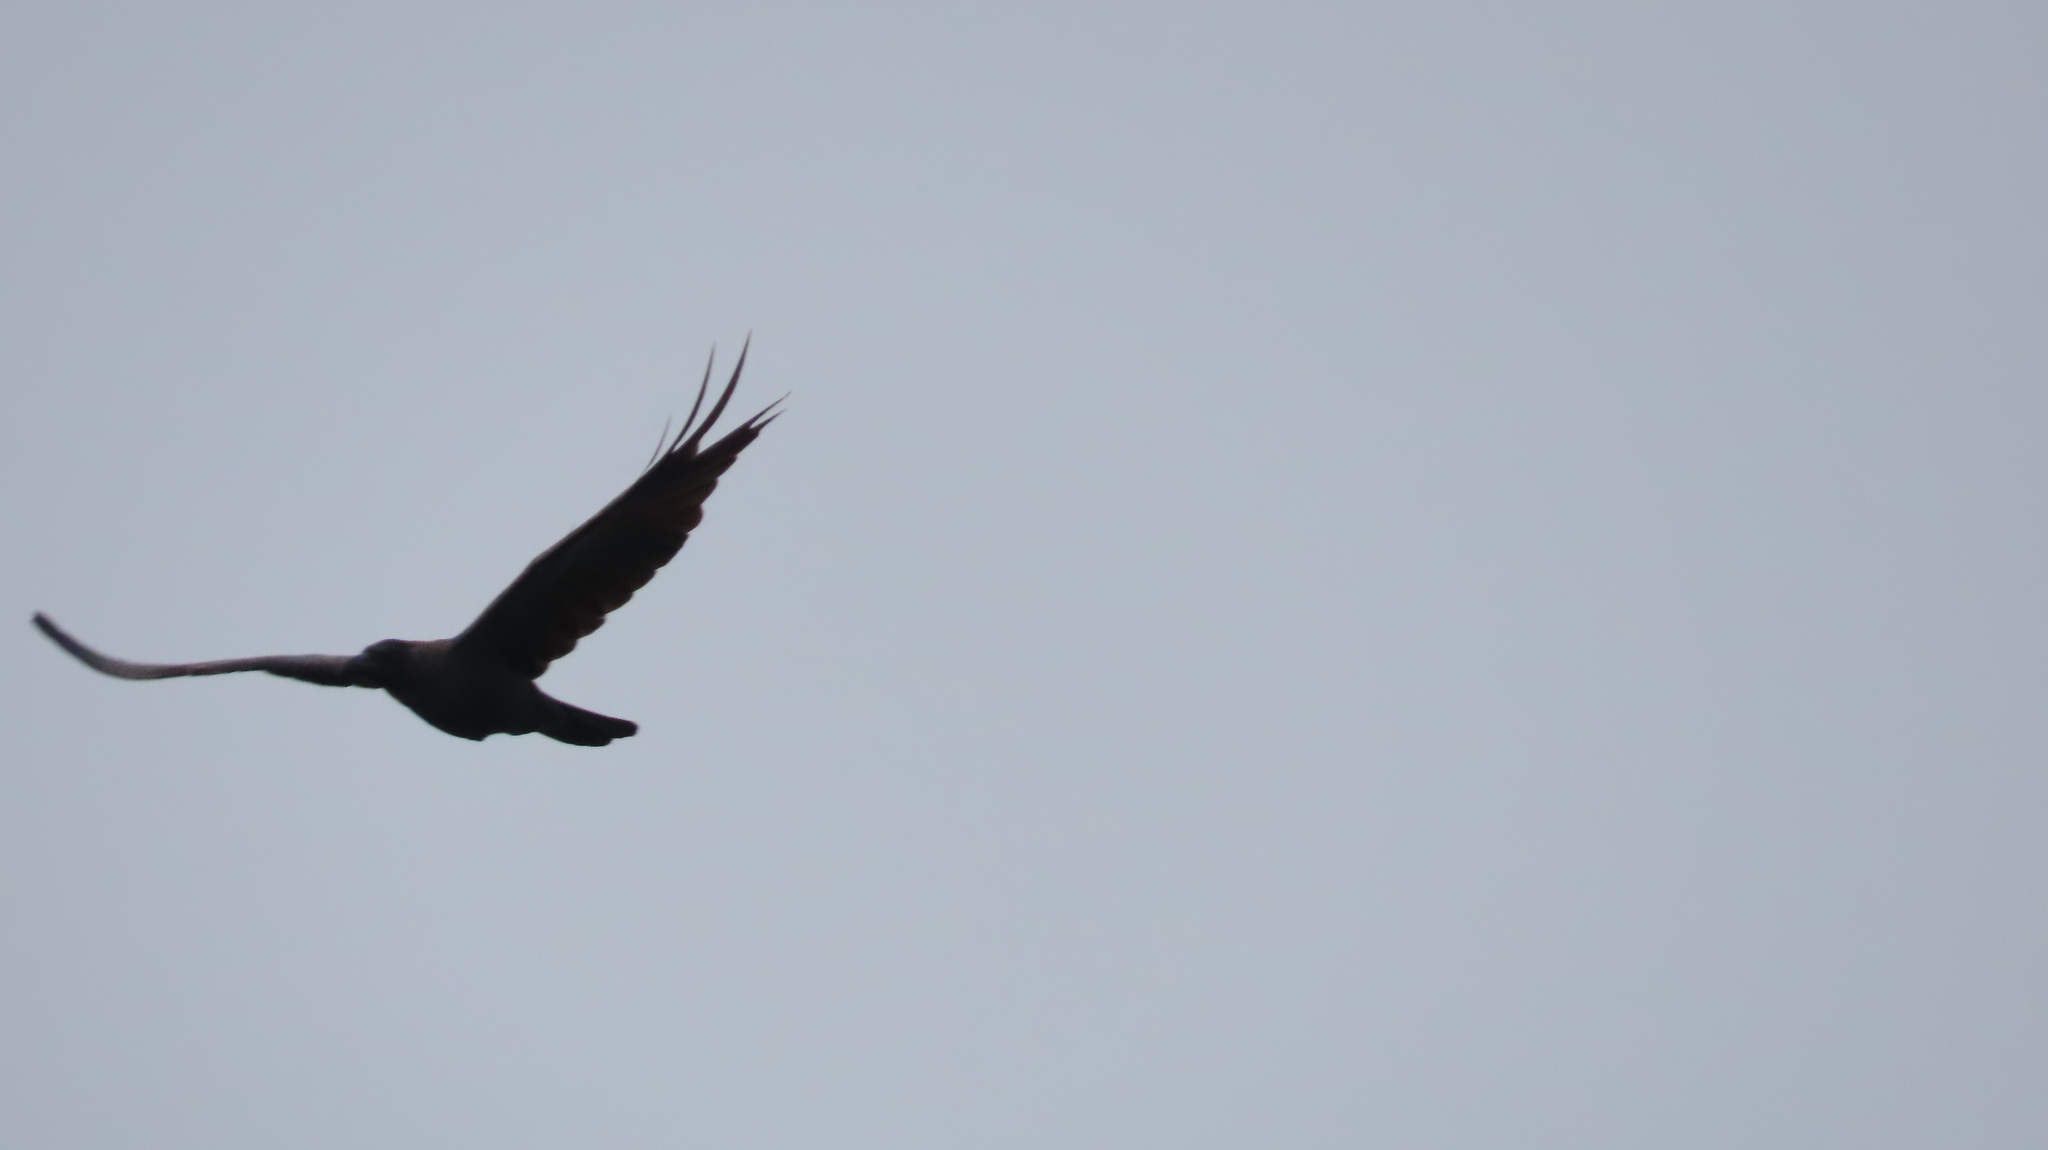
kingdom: Animalia
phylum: Chordata
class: Aves
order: Passeriformes
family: Corvidae
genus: Corvus
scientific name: Corvus splendens
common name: House crow
